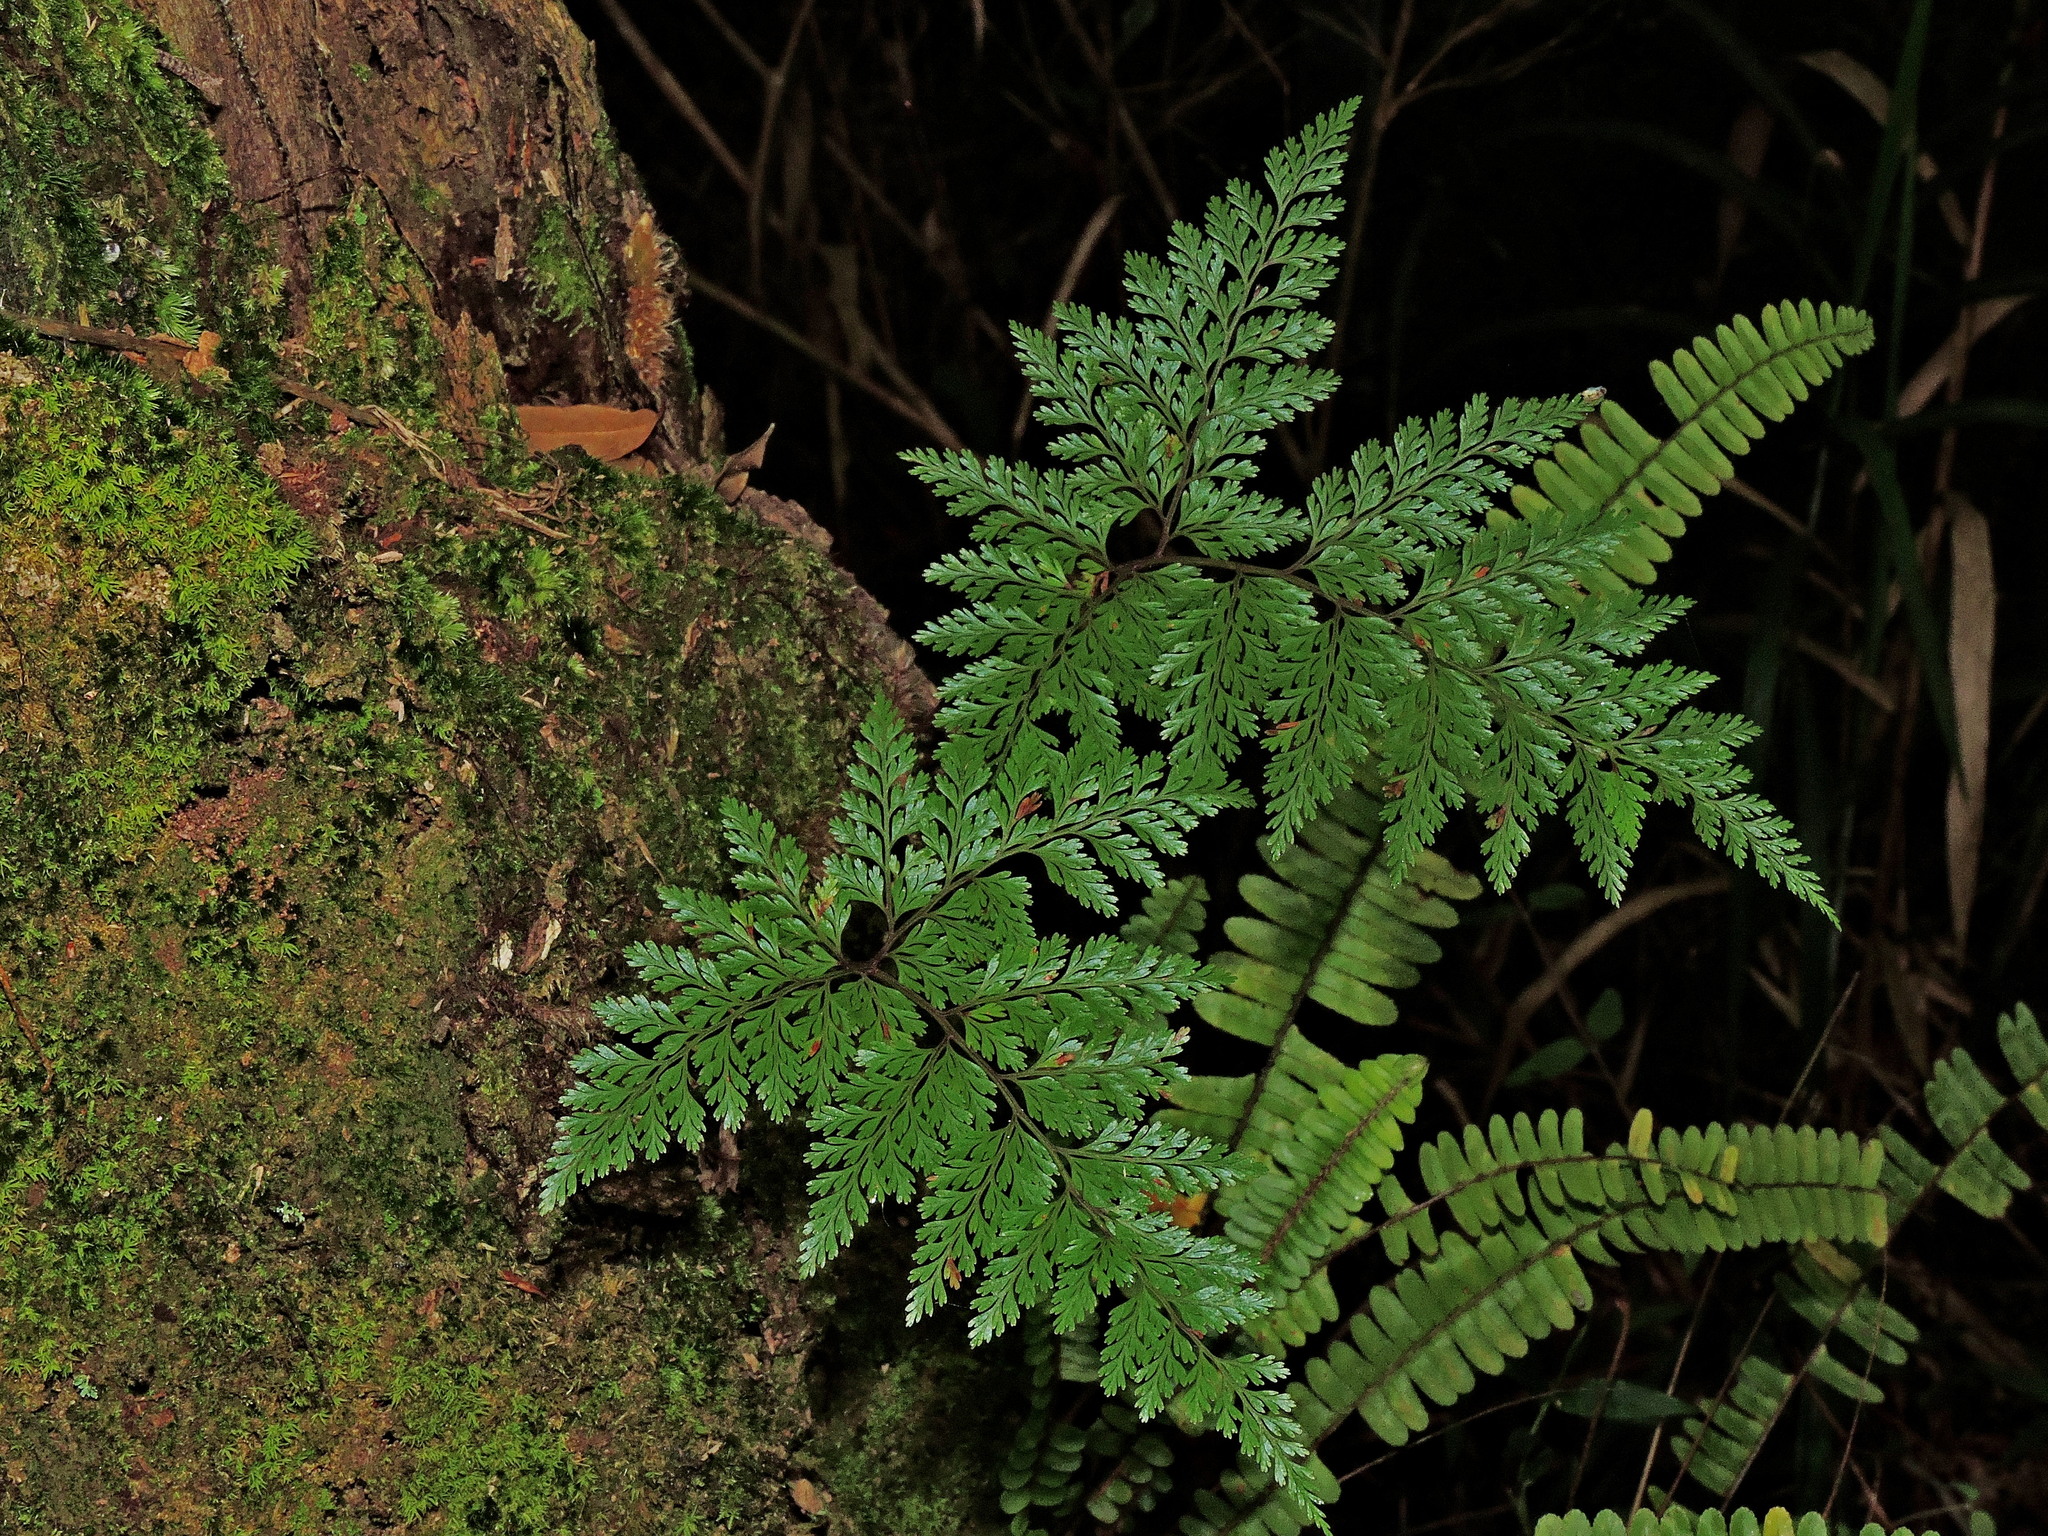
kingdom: Plantae
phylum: Tracheophyta
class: Polypodiopsida
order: Polypodiales
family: Davalliaceae
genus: Davallia
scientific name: Davallia trichomanoides
